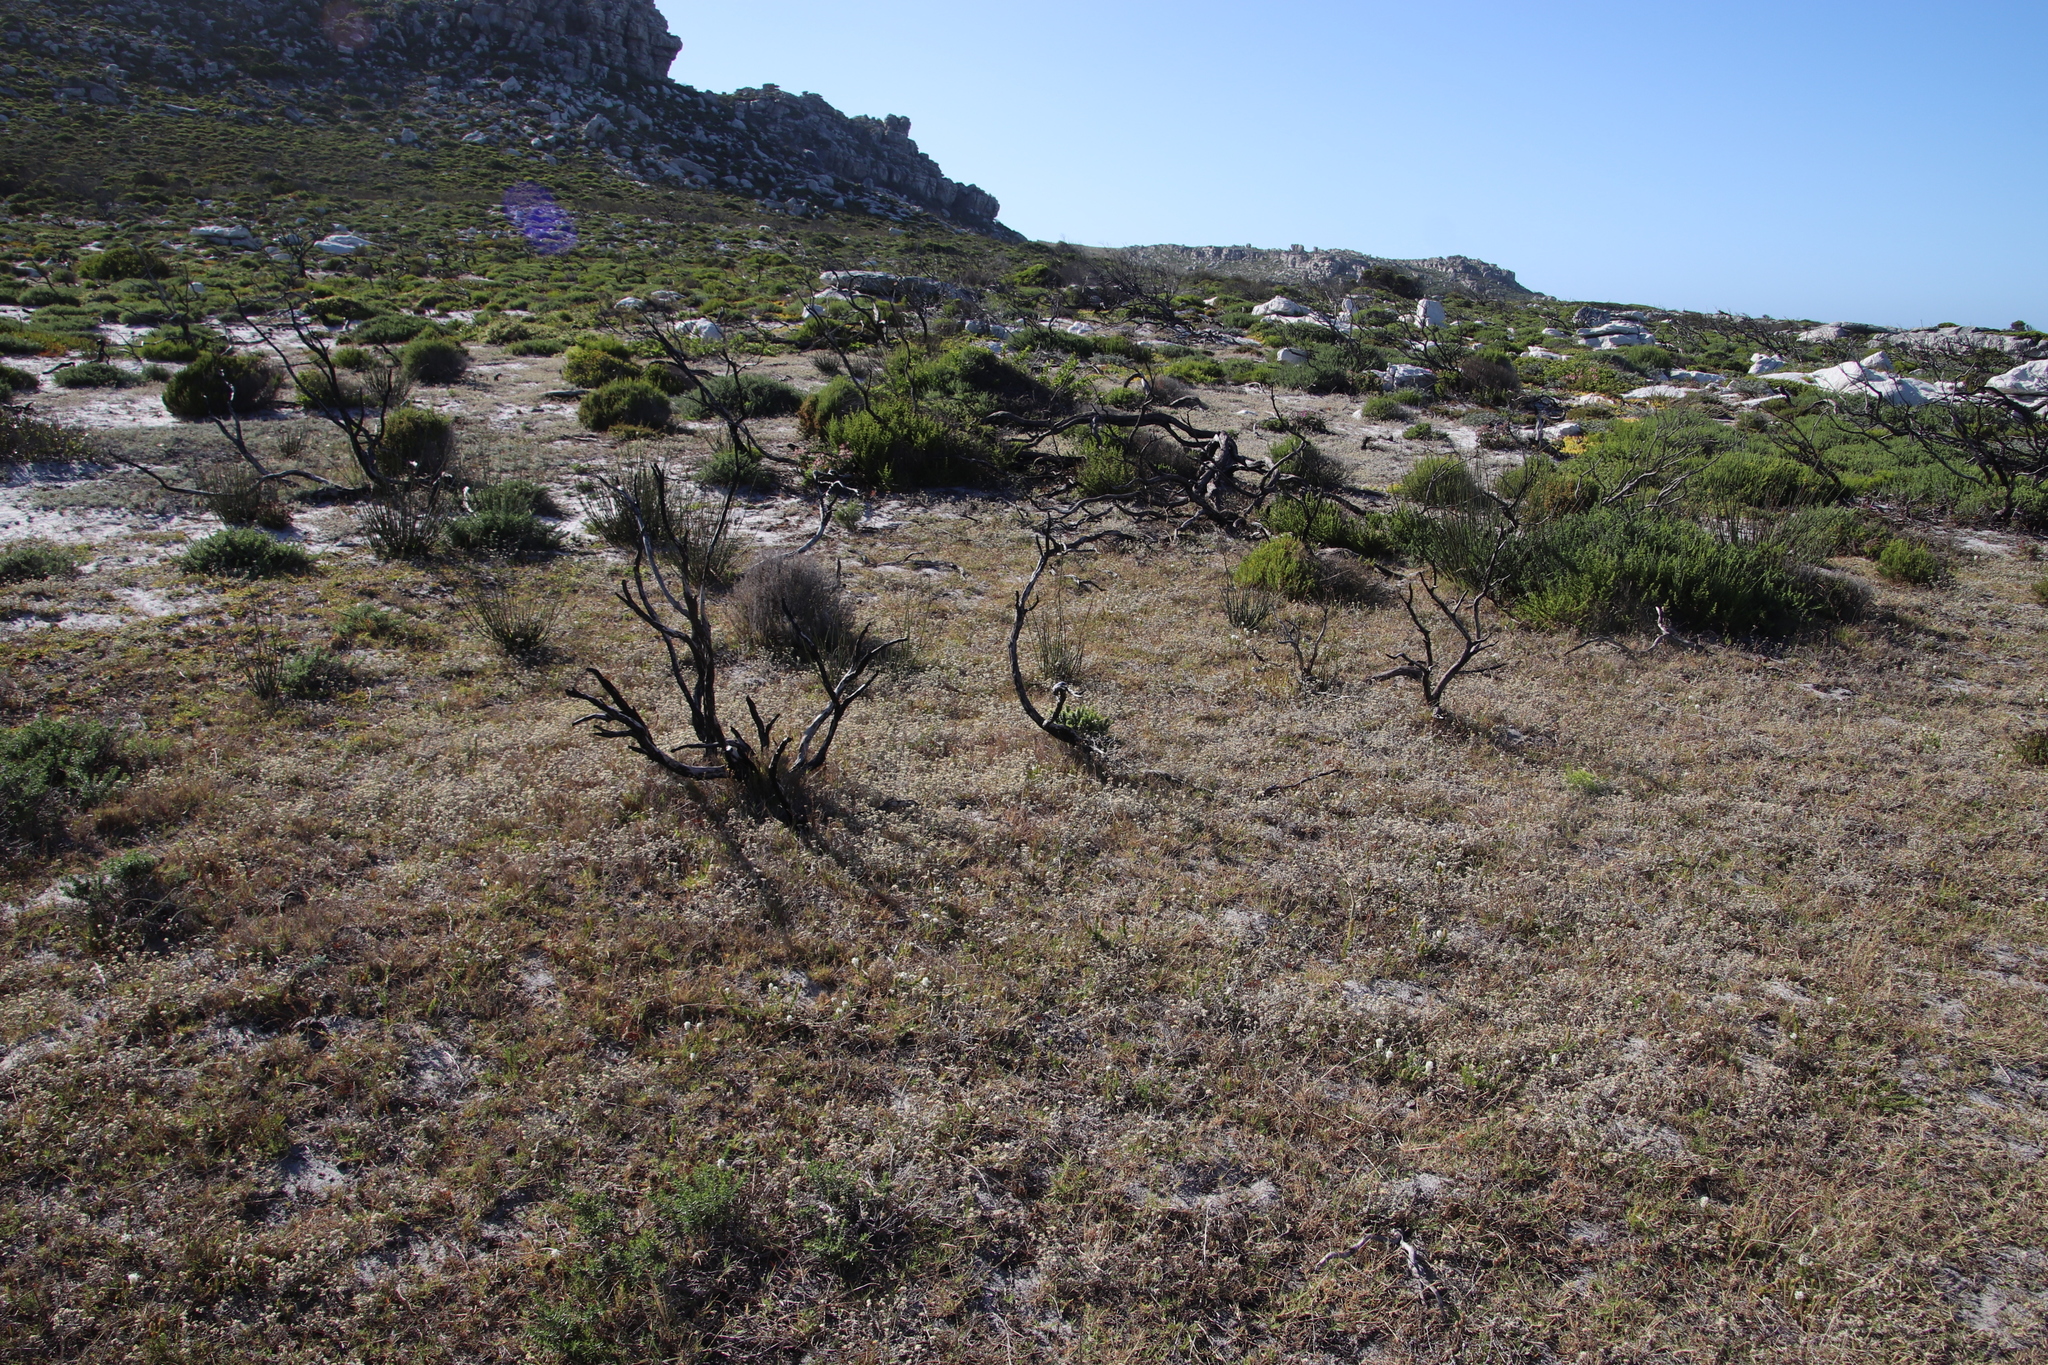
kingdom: Plantae
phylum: Tracheophyta
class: Magnoliopsida
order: Asterales
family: Asteraceae
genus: Helichrysum
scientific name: Helichrysum indicum
